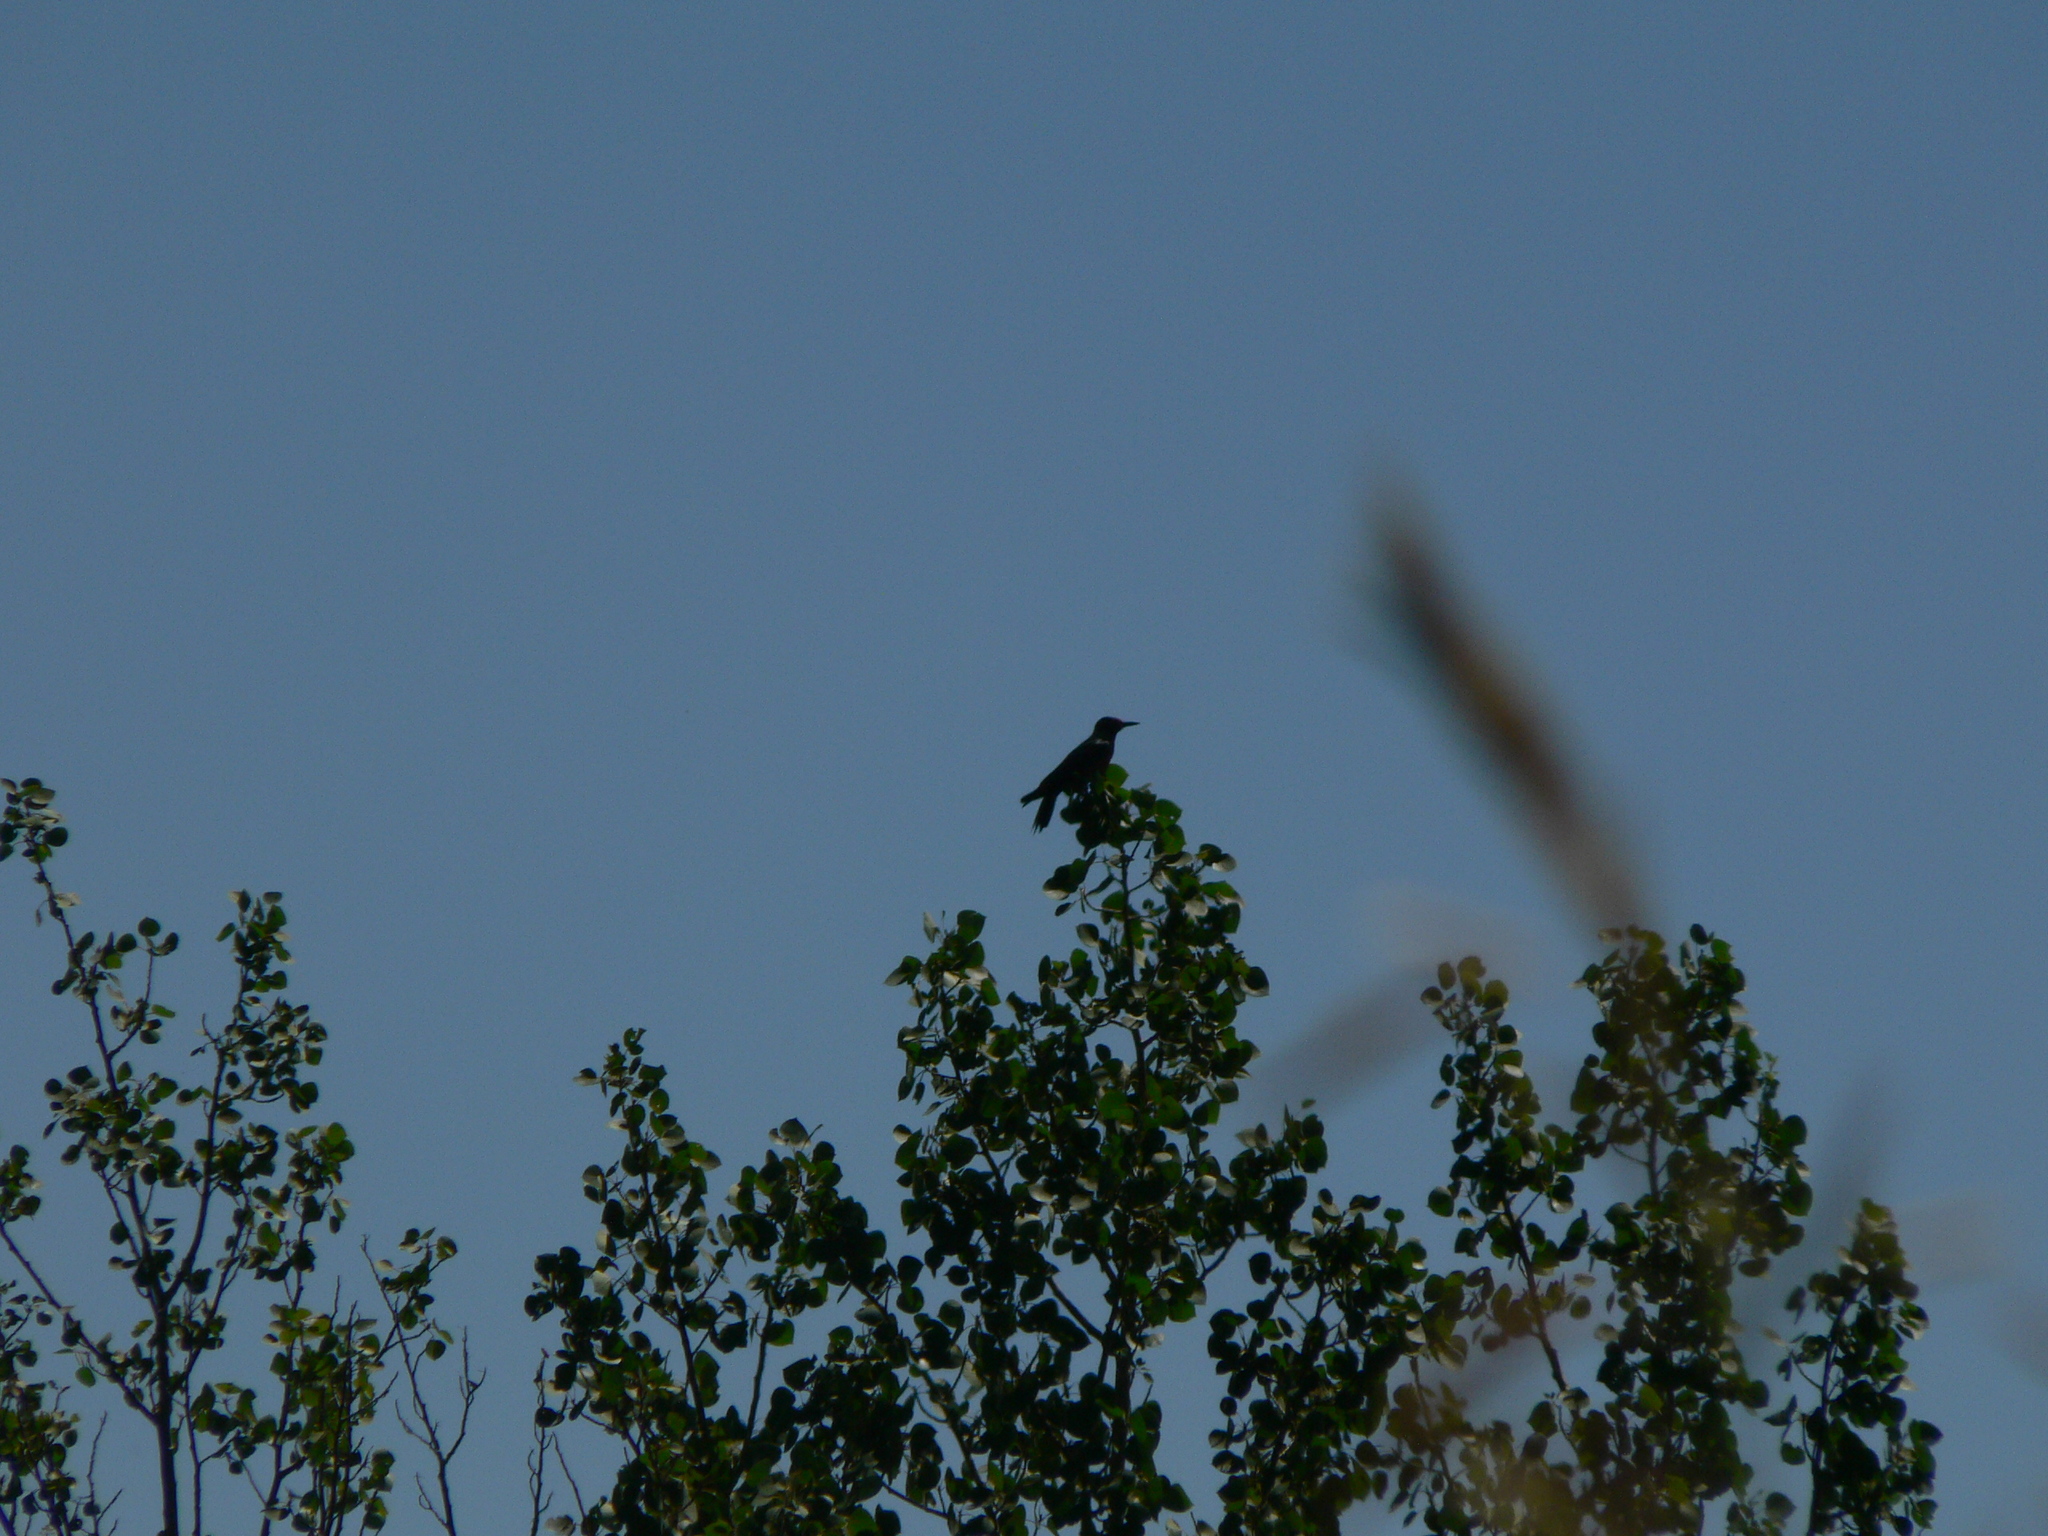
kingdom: Animalia
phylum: Chordata
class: Aves
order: Piciformes
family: Picidae
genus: Melanerpes
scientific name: Melanerpes lewis
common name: Lewis's woodpecker
